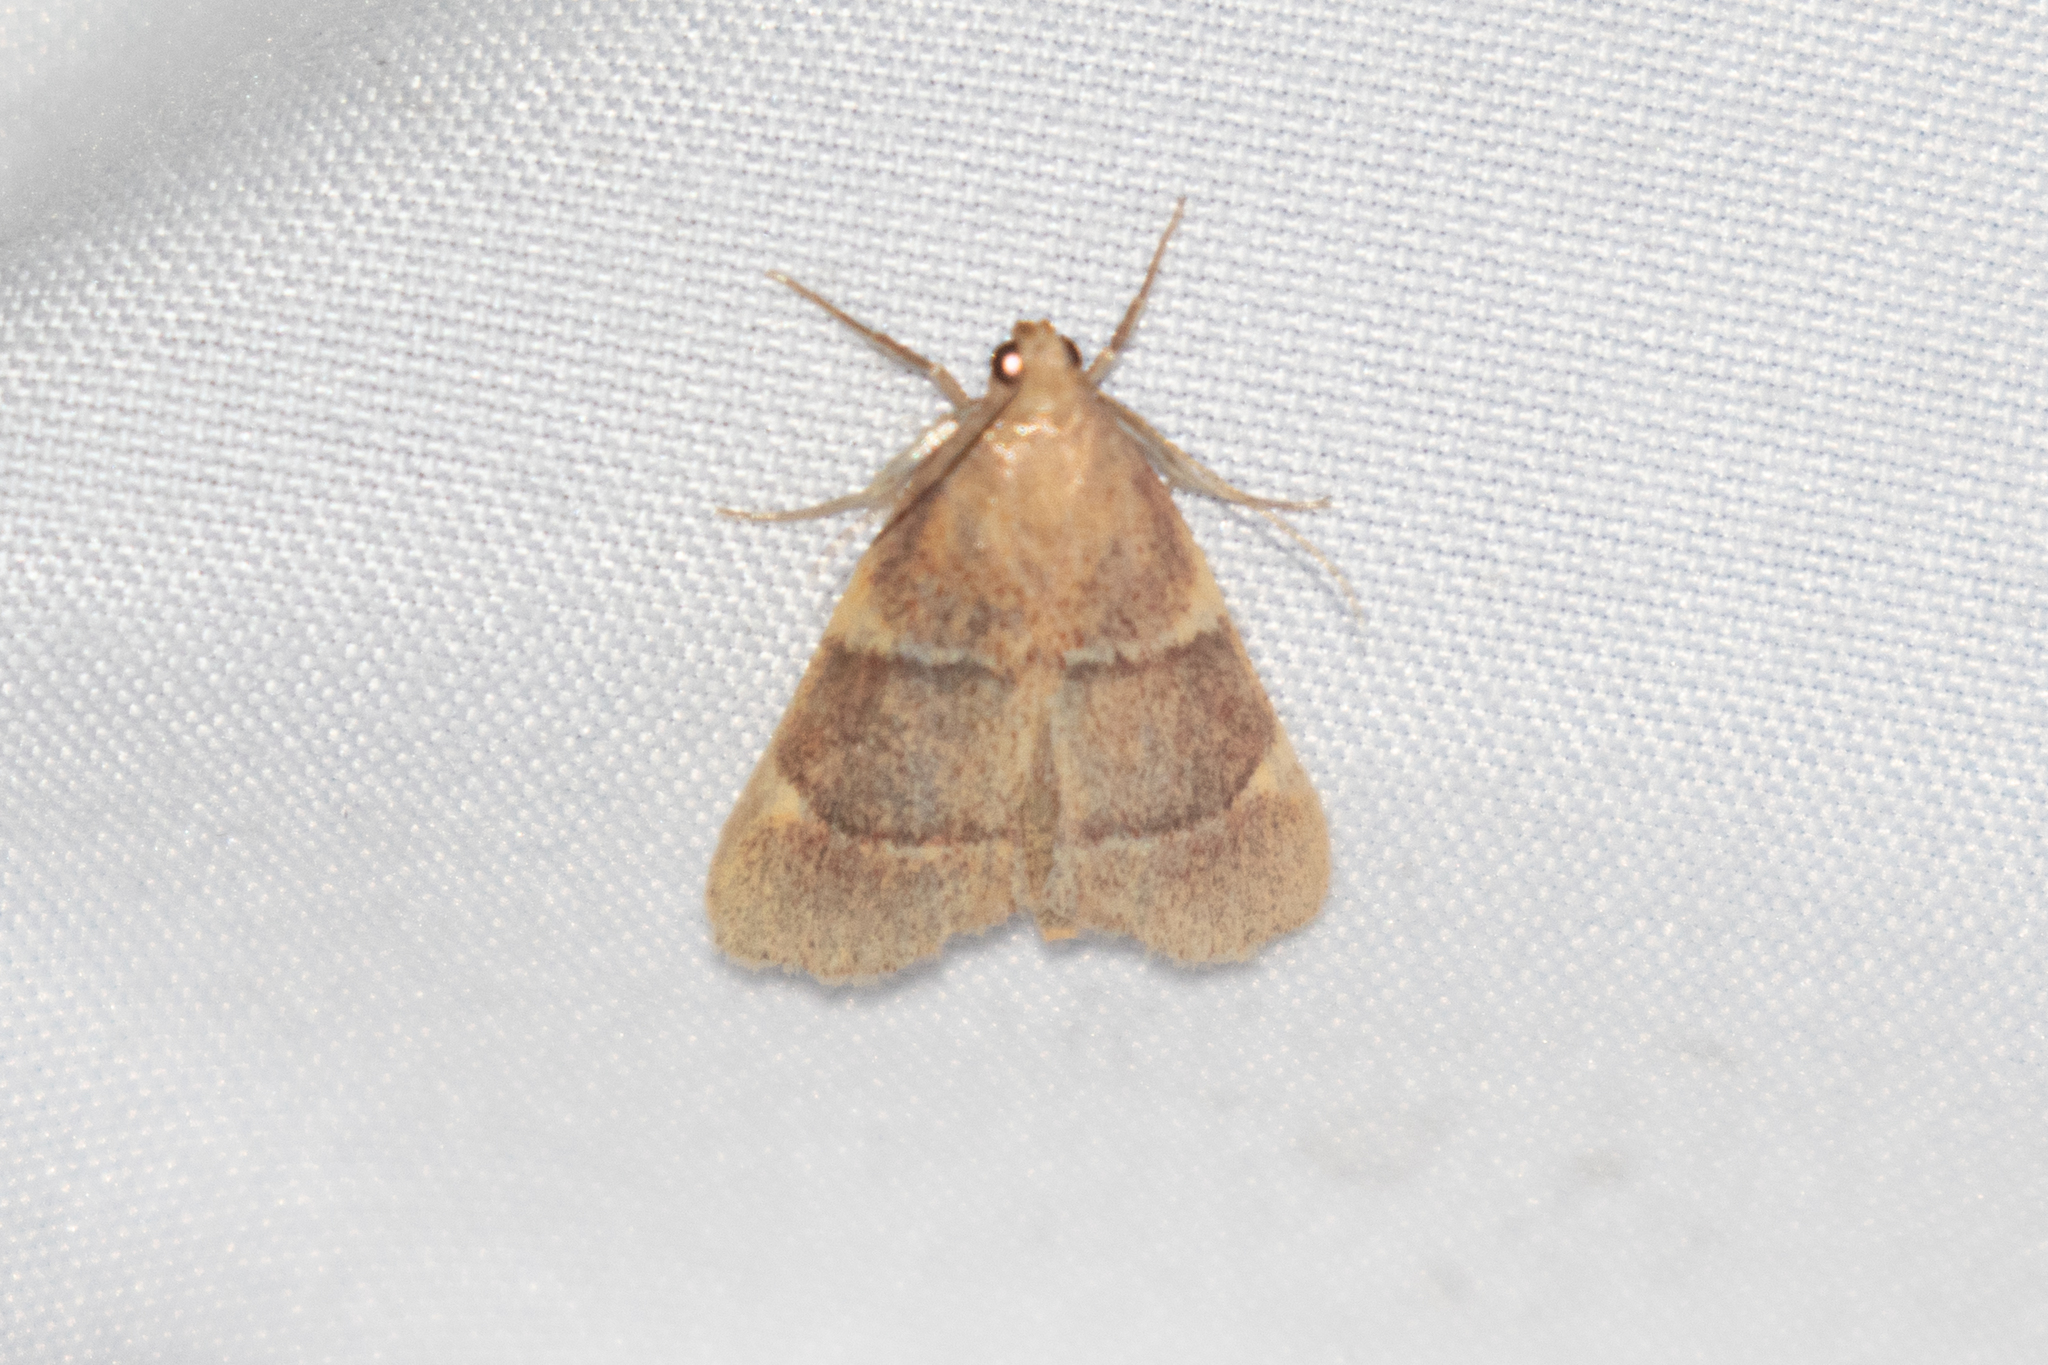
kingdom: Animalia
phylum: Arthropoda
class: Insecta
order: Lepidoptera
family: Pyralidae
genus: Hypsopygia
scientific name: Hypsopygia olinalis
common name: Yellow-fringed dolichomia moth
